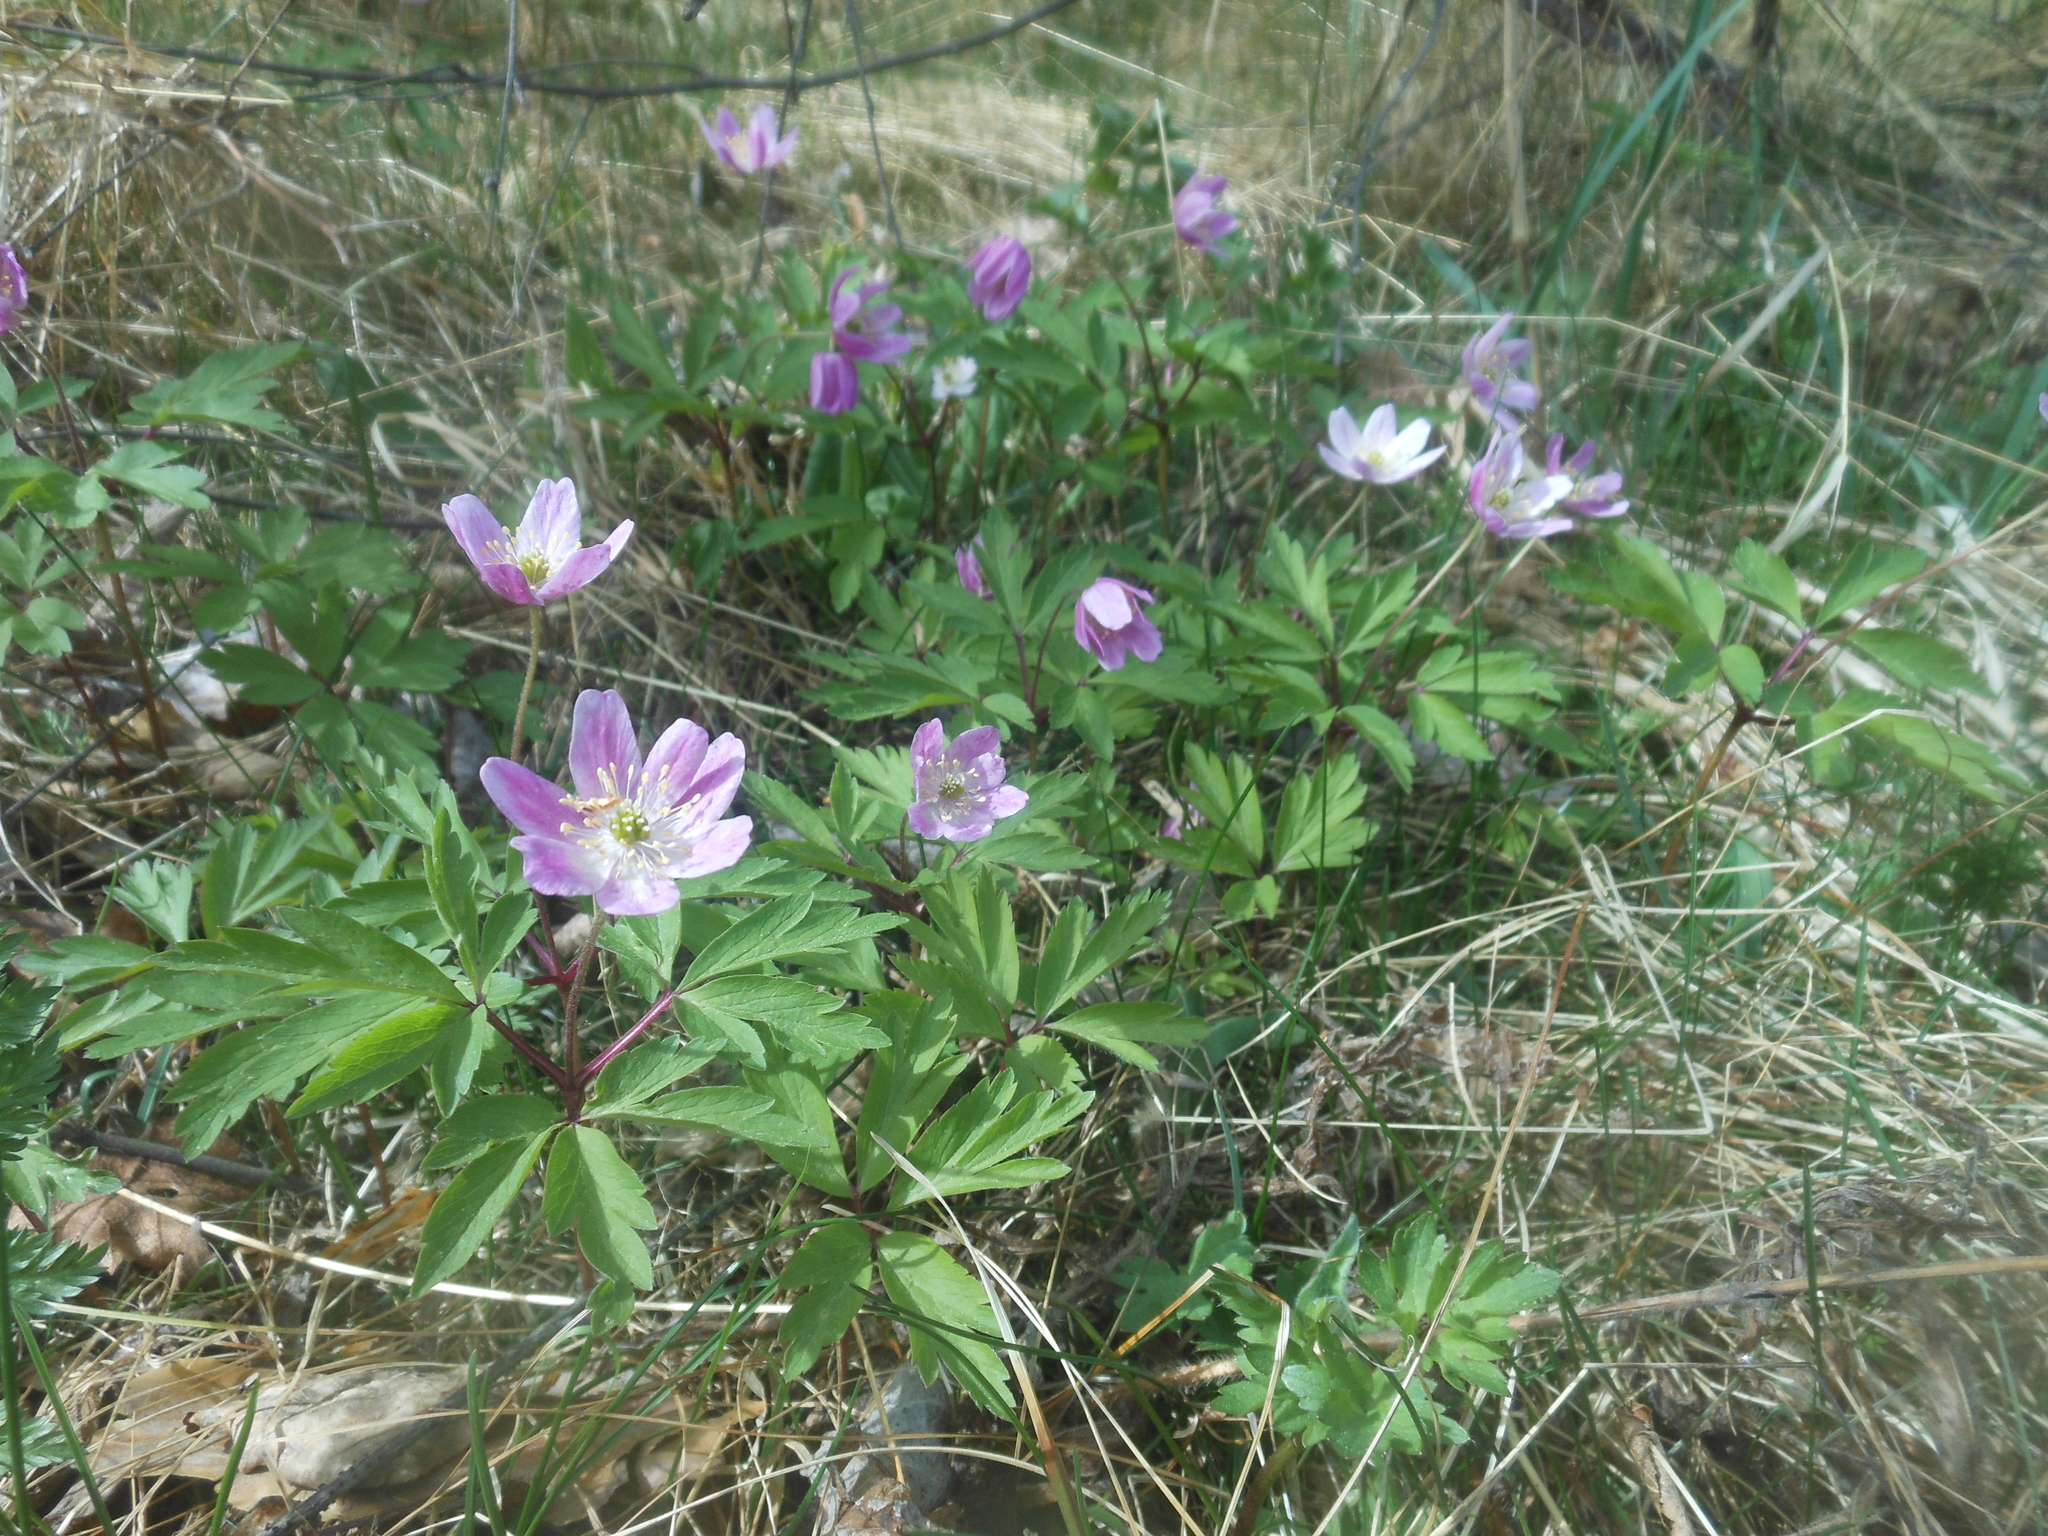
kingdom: Plantae
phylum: Tracheophyta
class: Magnoliopsida
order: Ranunculales
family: Ranunculaceae
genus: Anemone
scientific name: Anemone nemorosa
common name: Wood anemone
